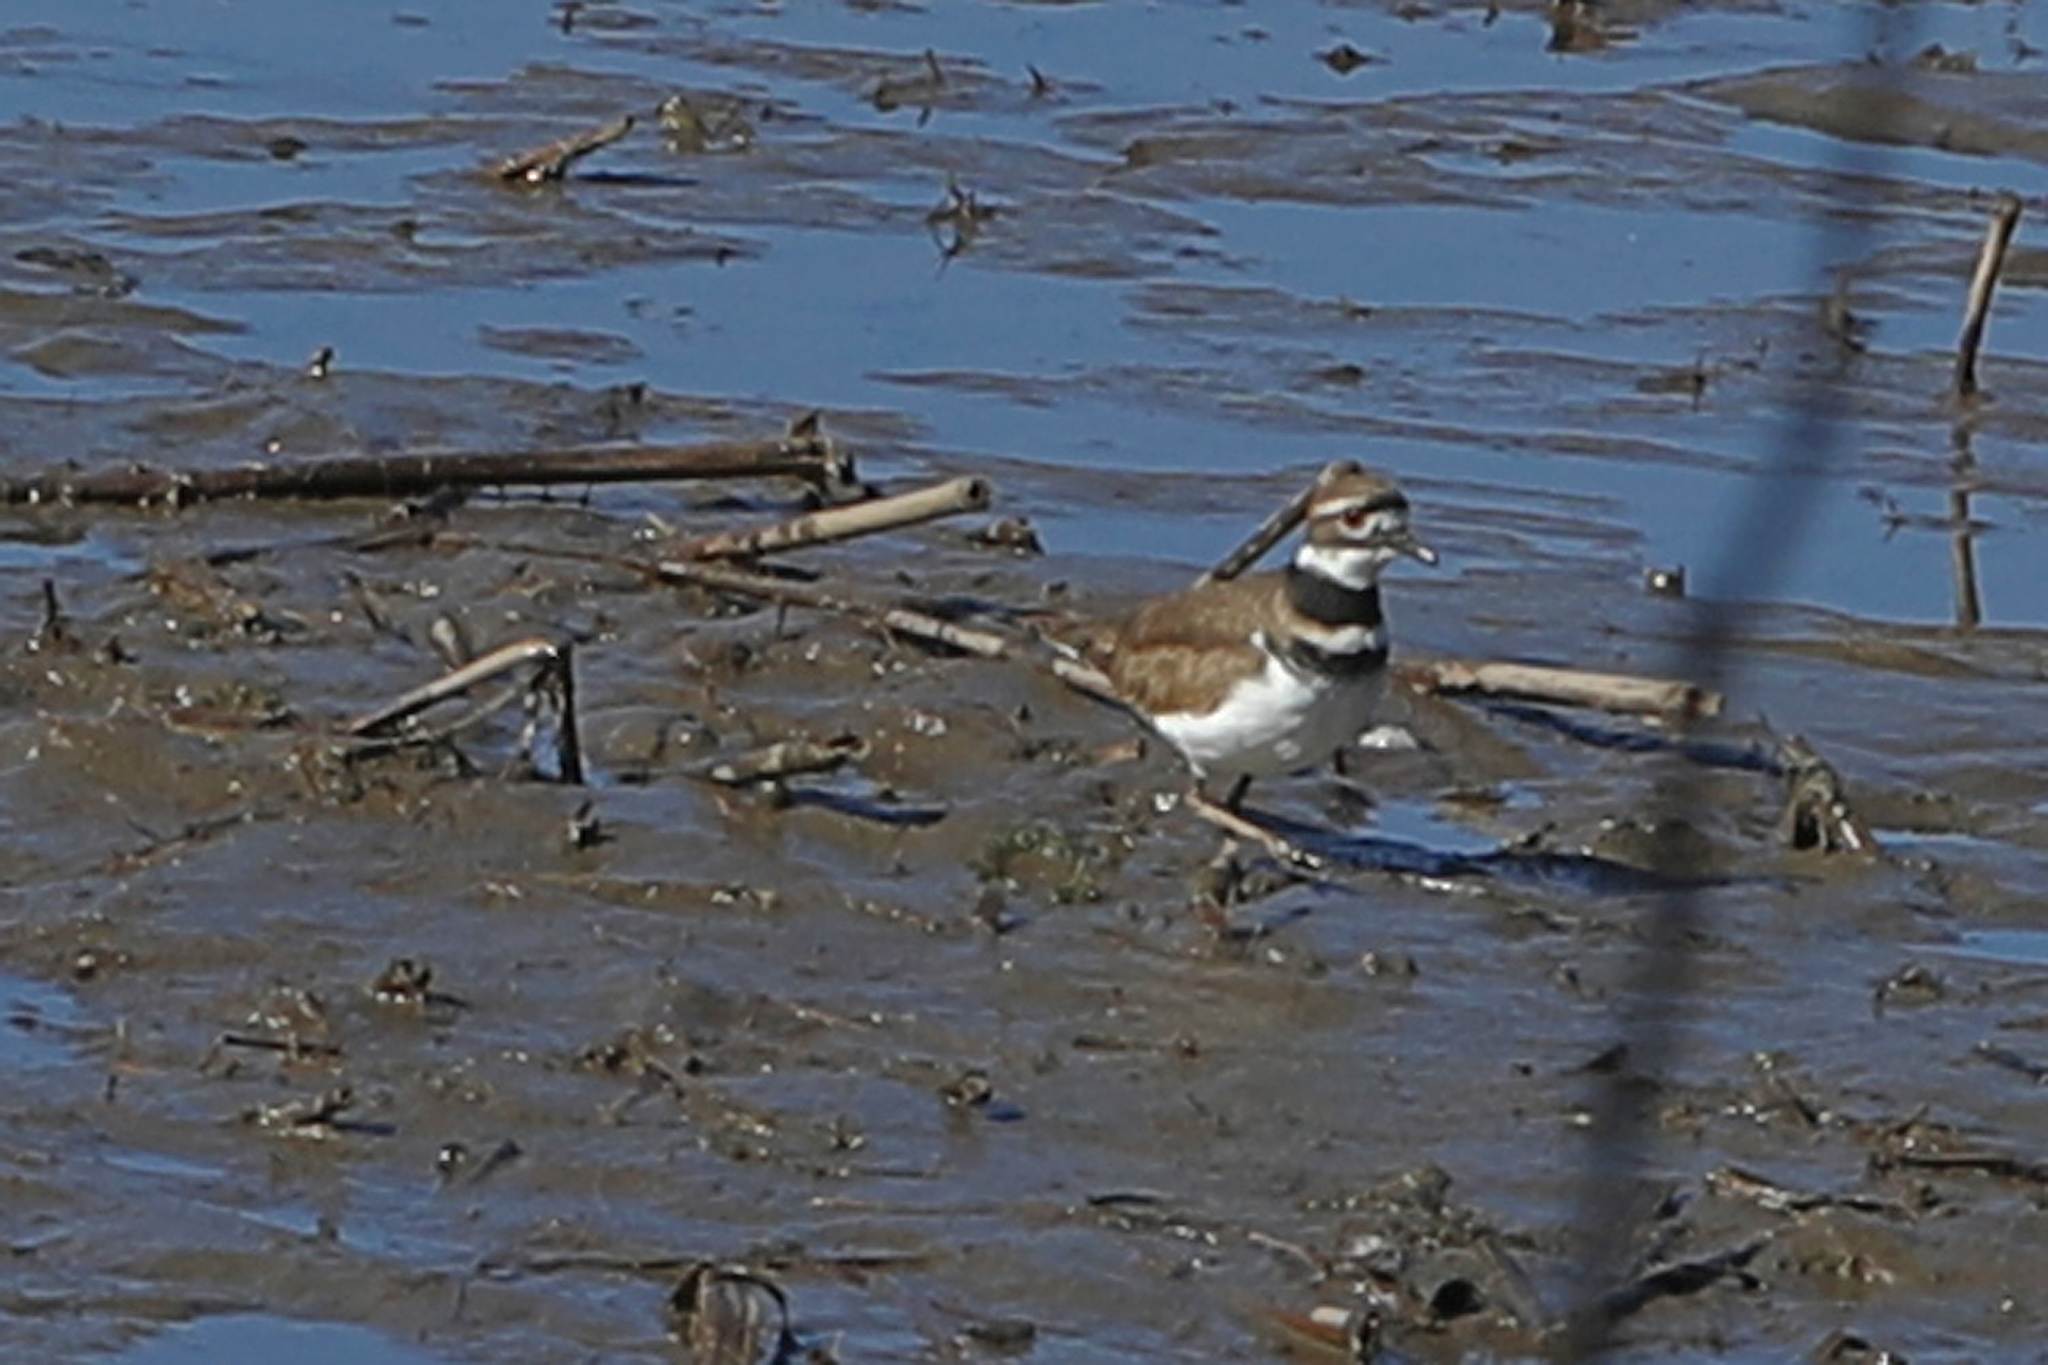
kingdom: Animalia
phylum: Chordata
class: Aves
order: Charadriiformes
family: Charadriidae
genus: Charadrius
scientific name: Charadrius vociferus
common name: Killdeer
